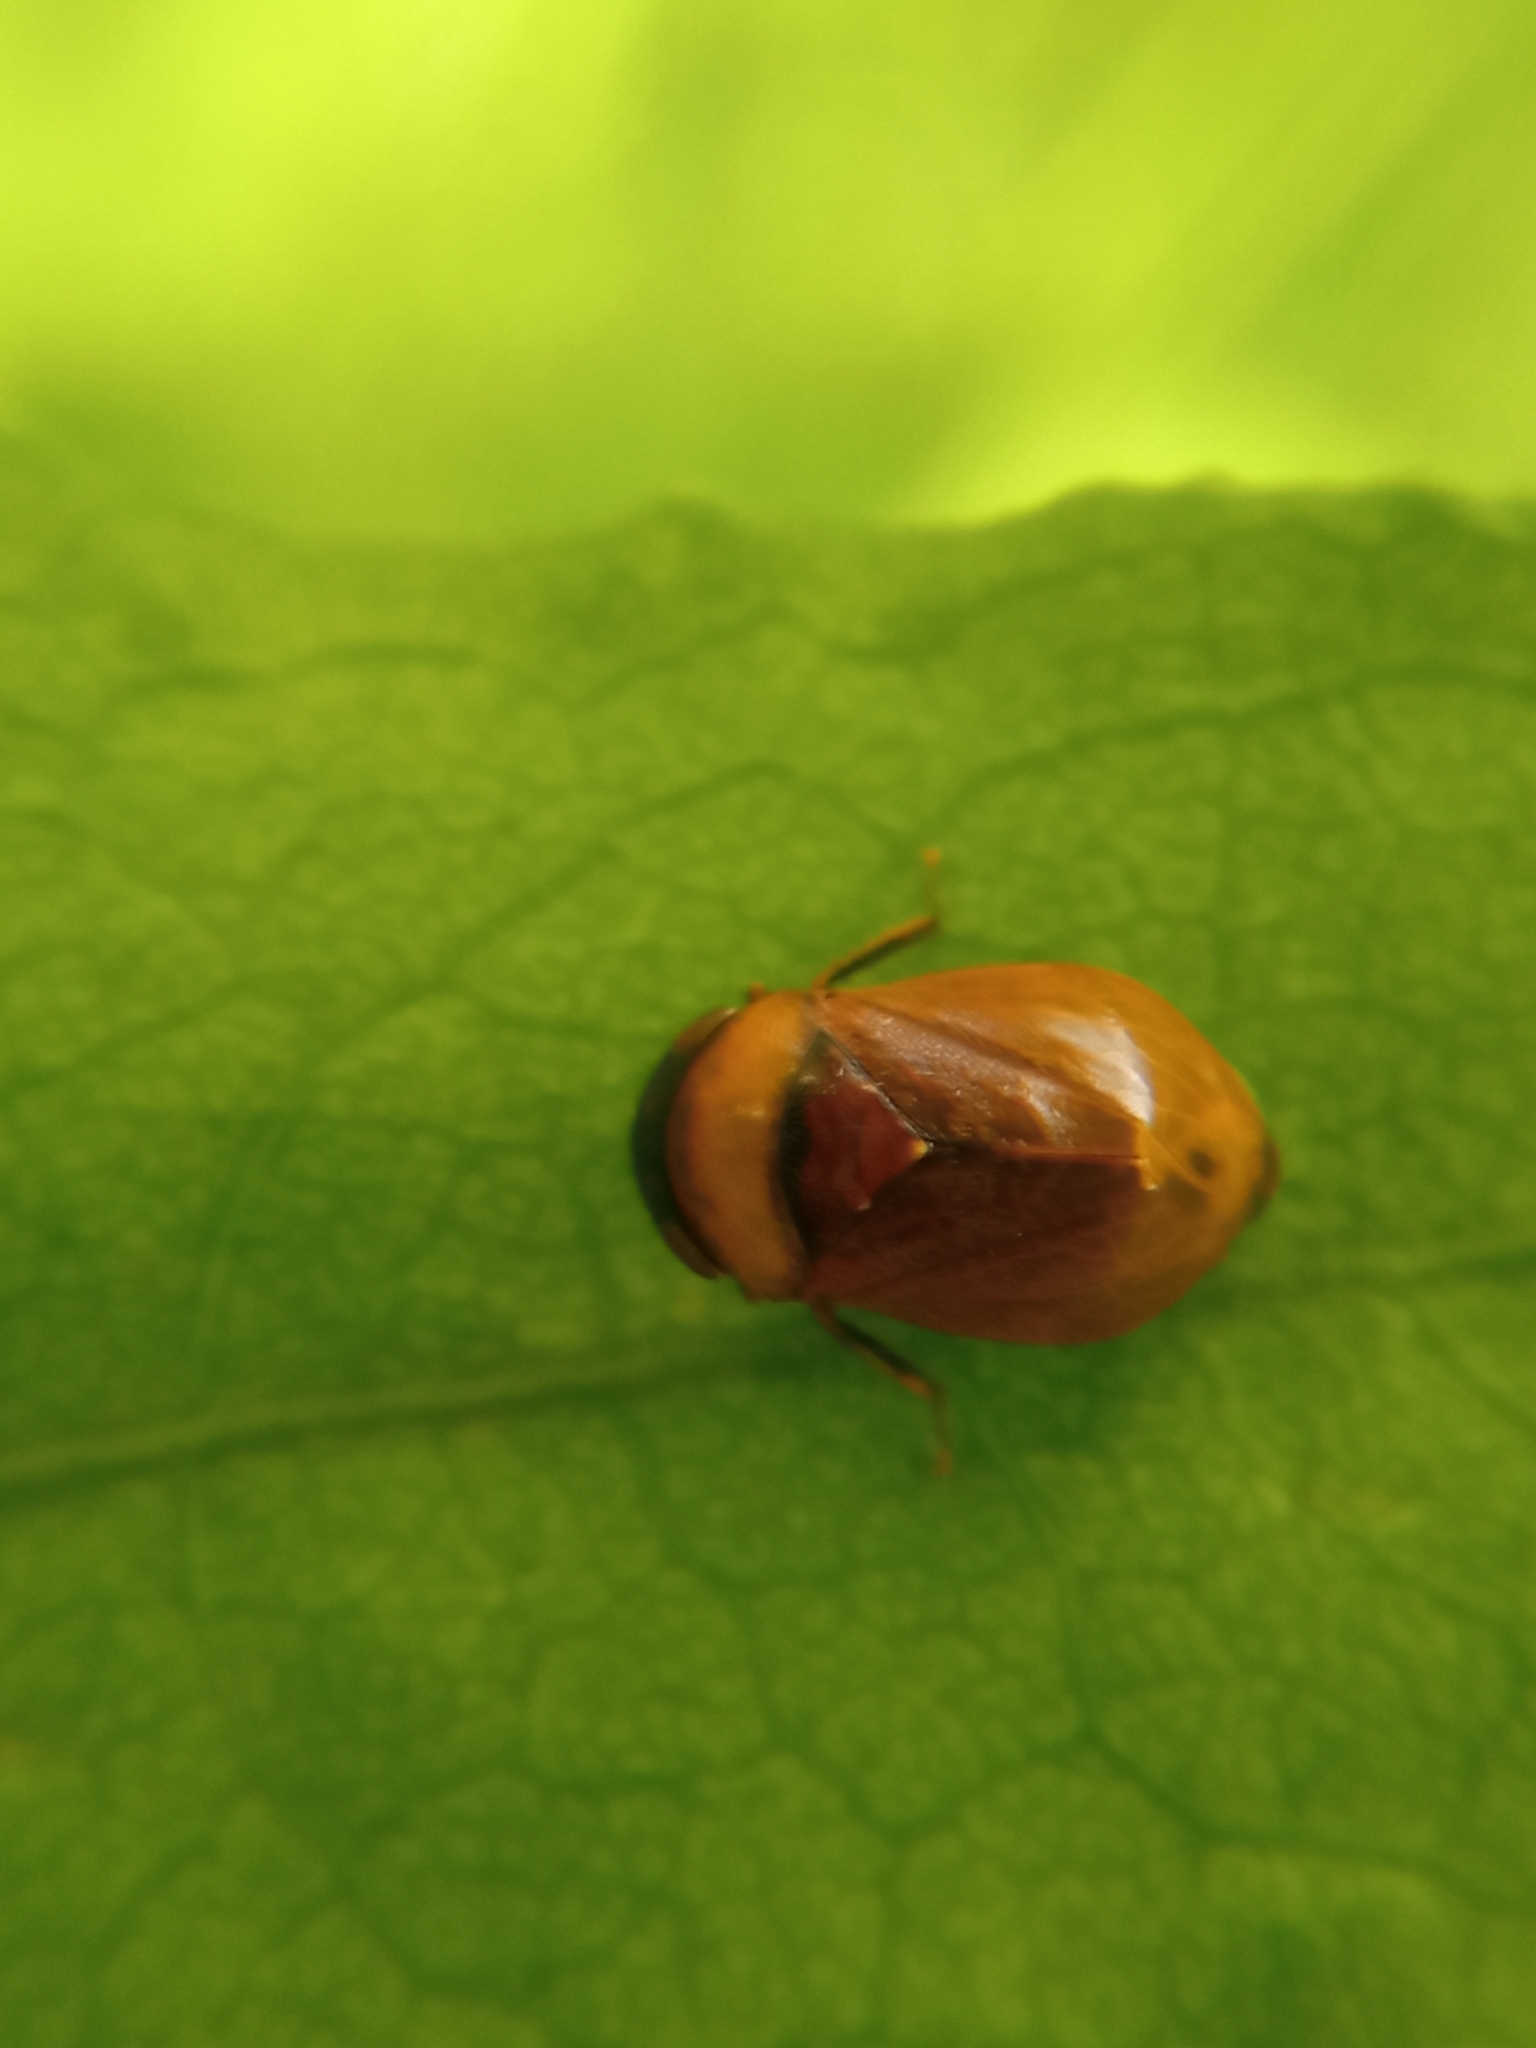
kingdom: Animalia
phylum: Arthropoda
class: Insecta
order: Hemiptera
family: Cicadellidae
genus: Penthimia
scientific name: Penthimia nigra
